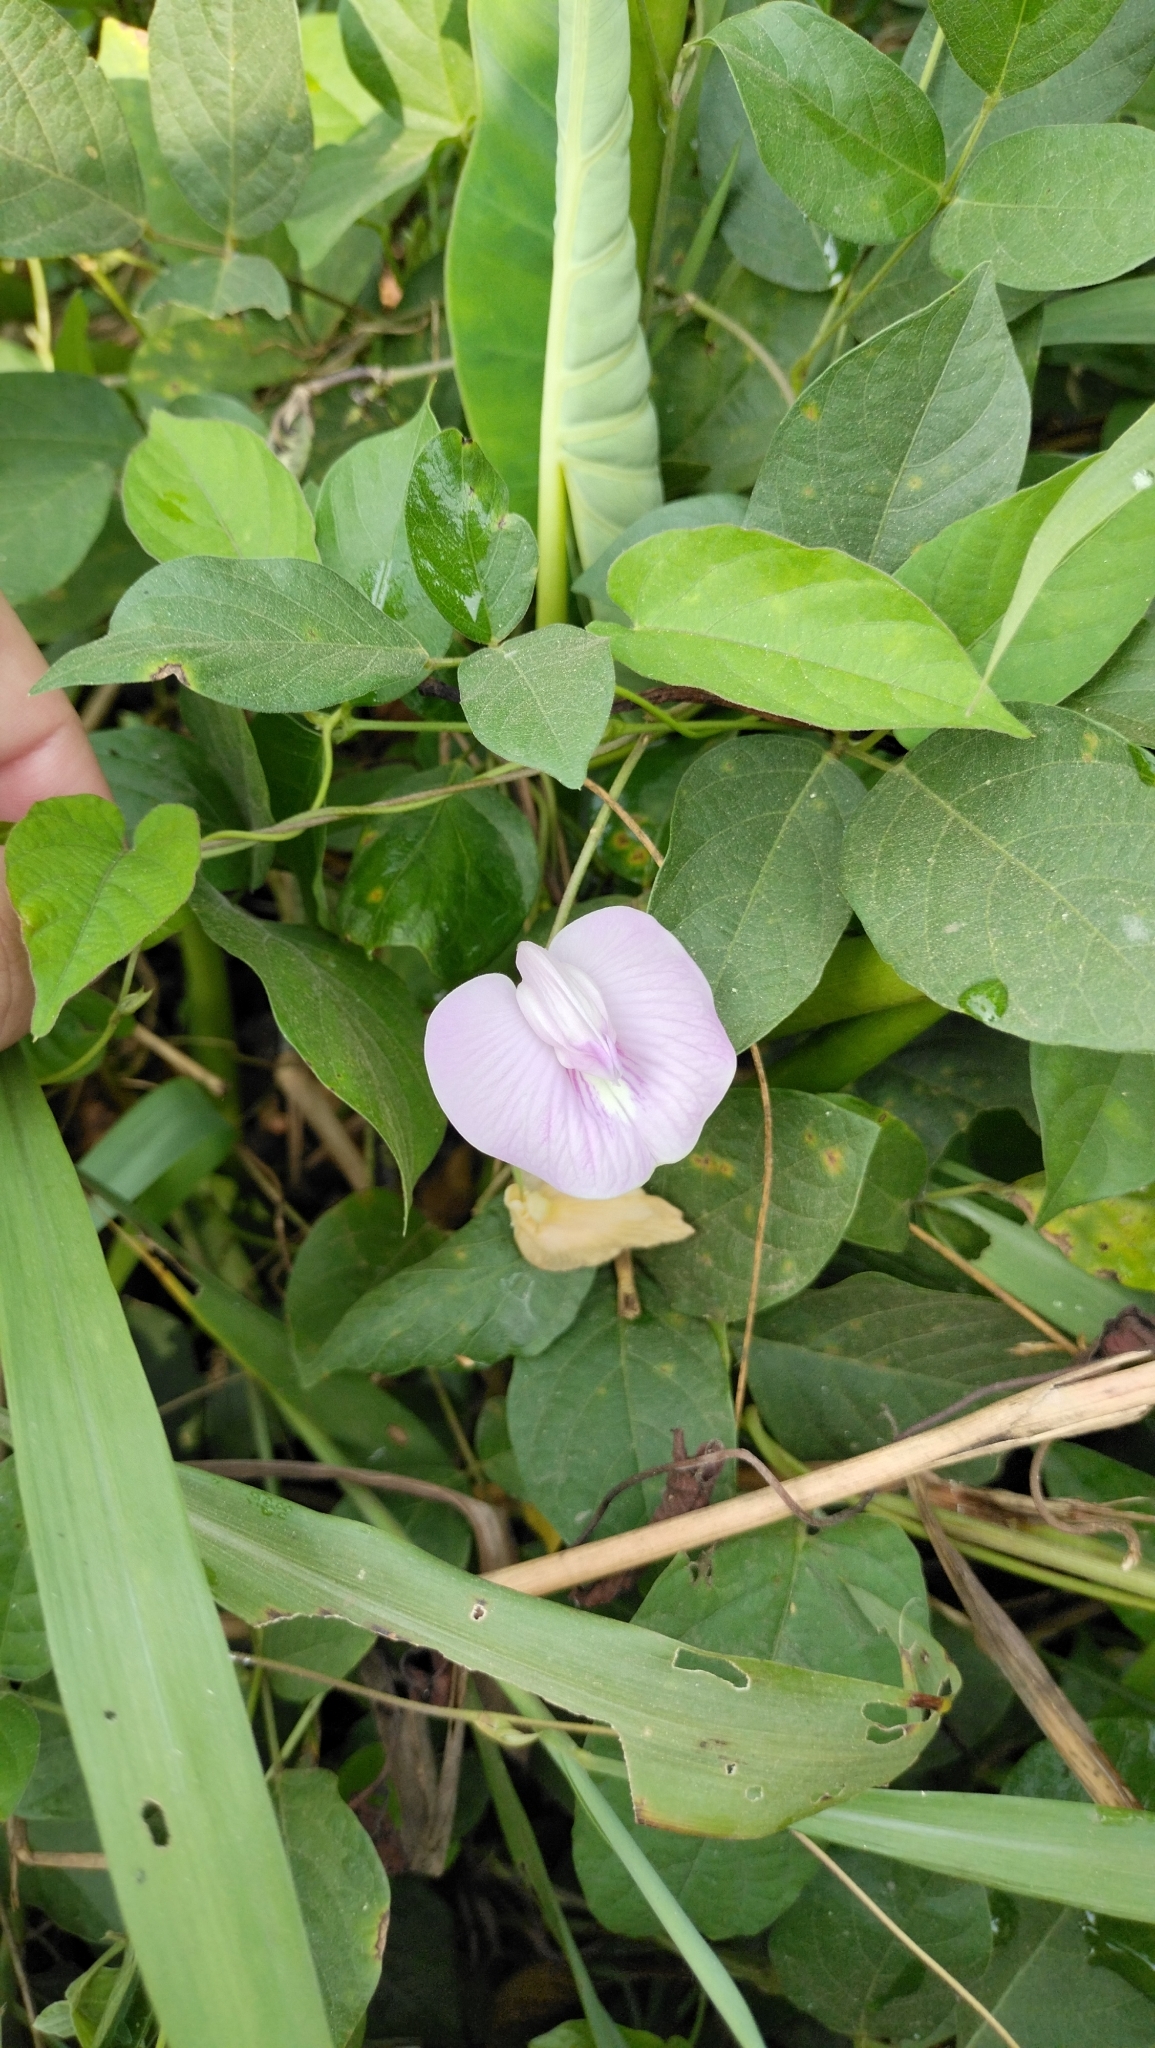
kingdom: Plantae
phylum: Tracheophyta
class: Magnoliopsida
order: Fabales
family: Fabaceae
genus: Centrosema
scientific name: Centrosema virginianum
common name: Butterfly-pea
